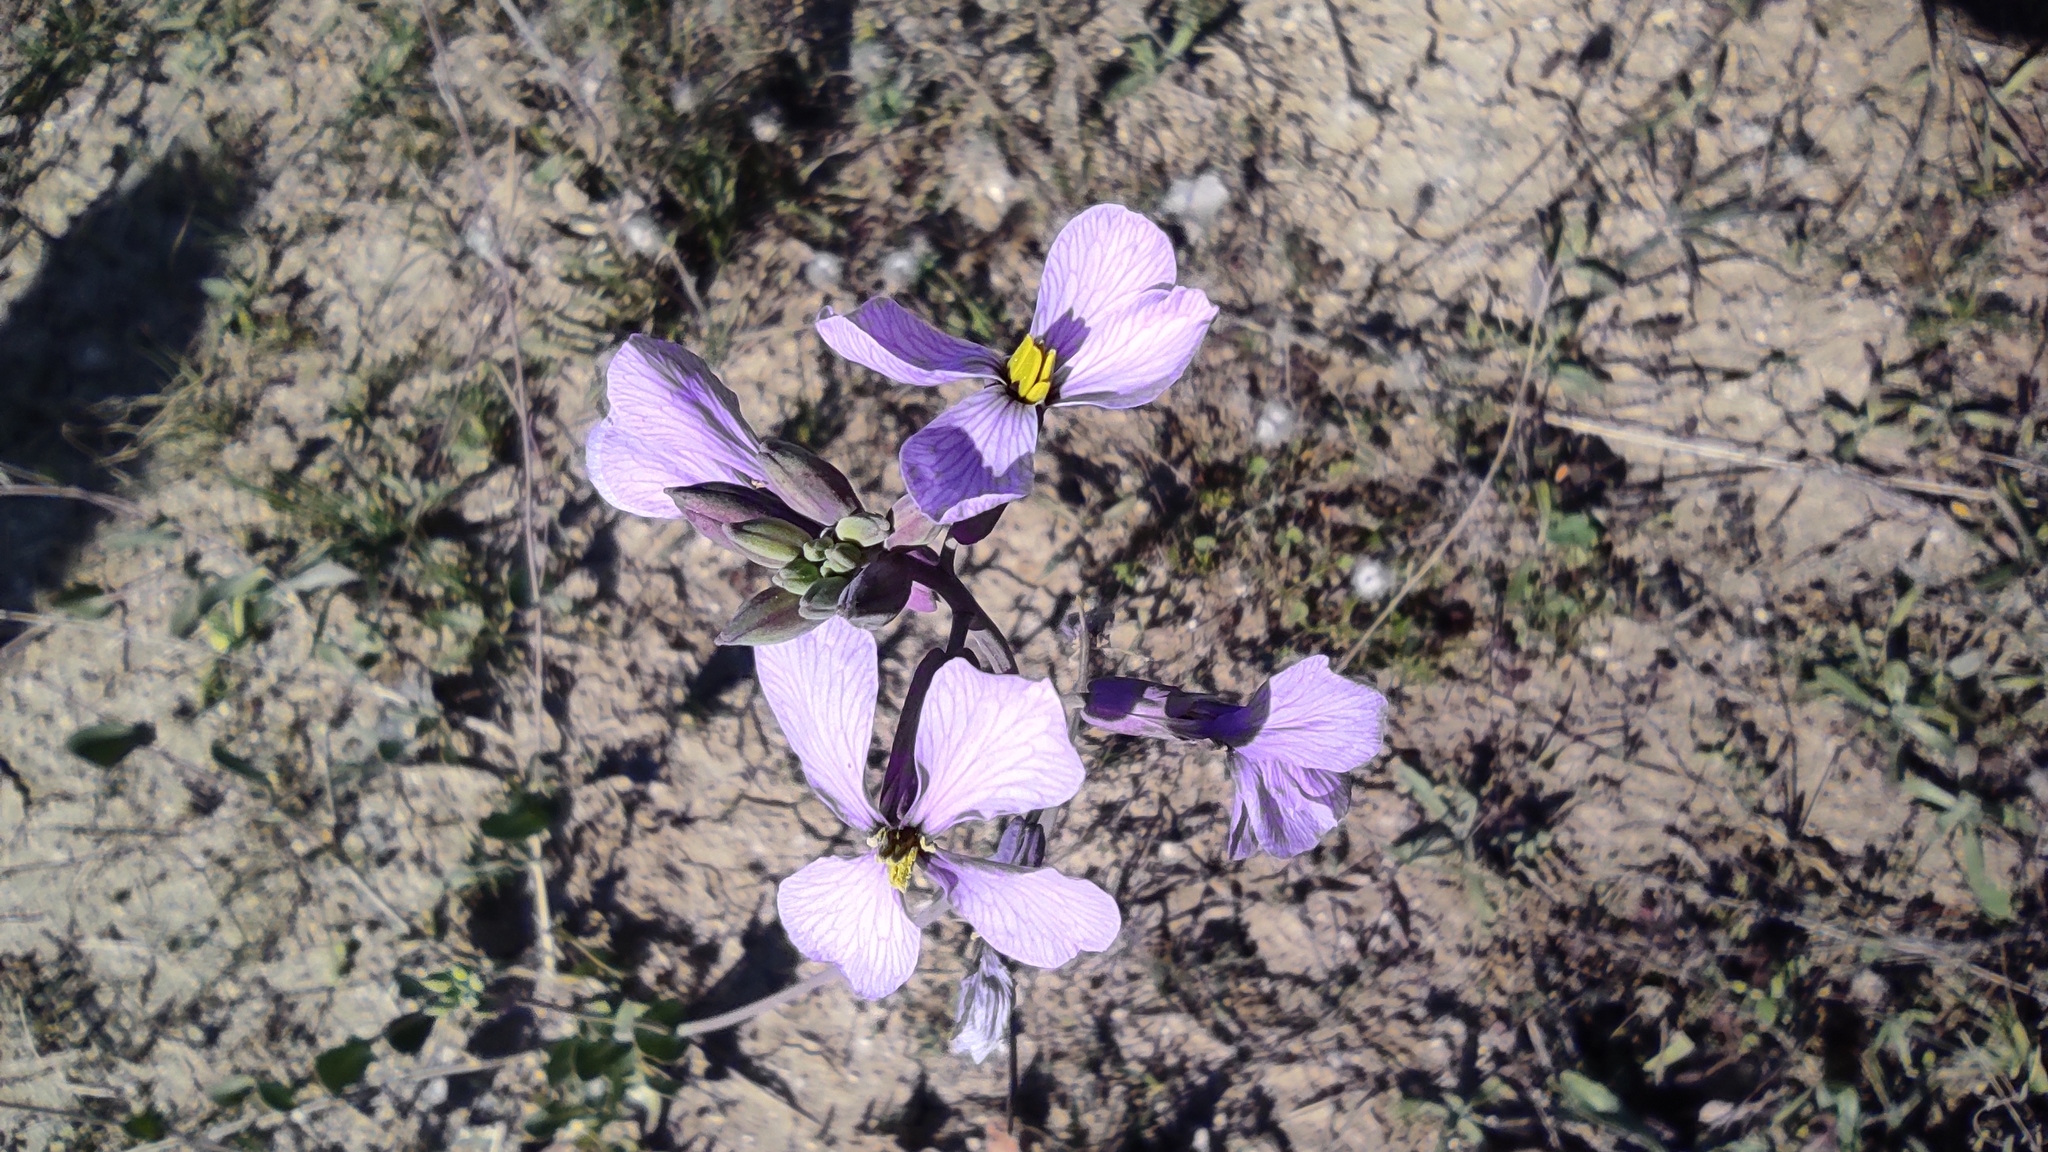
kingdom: Plantae
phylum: Tracheophyta
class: Magnoliopsida
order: Brassicales
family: Brassicaceae
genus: Moricandia
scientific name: Moricandia arvensis
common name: Purple mistress
